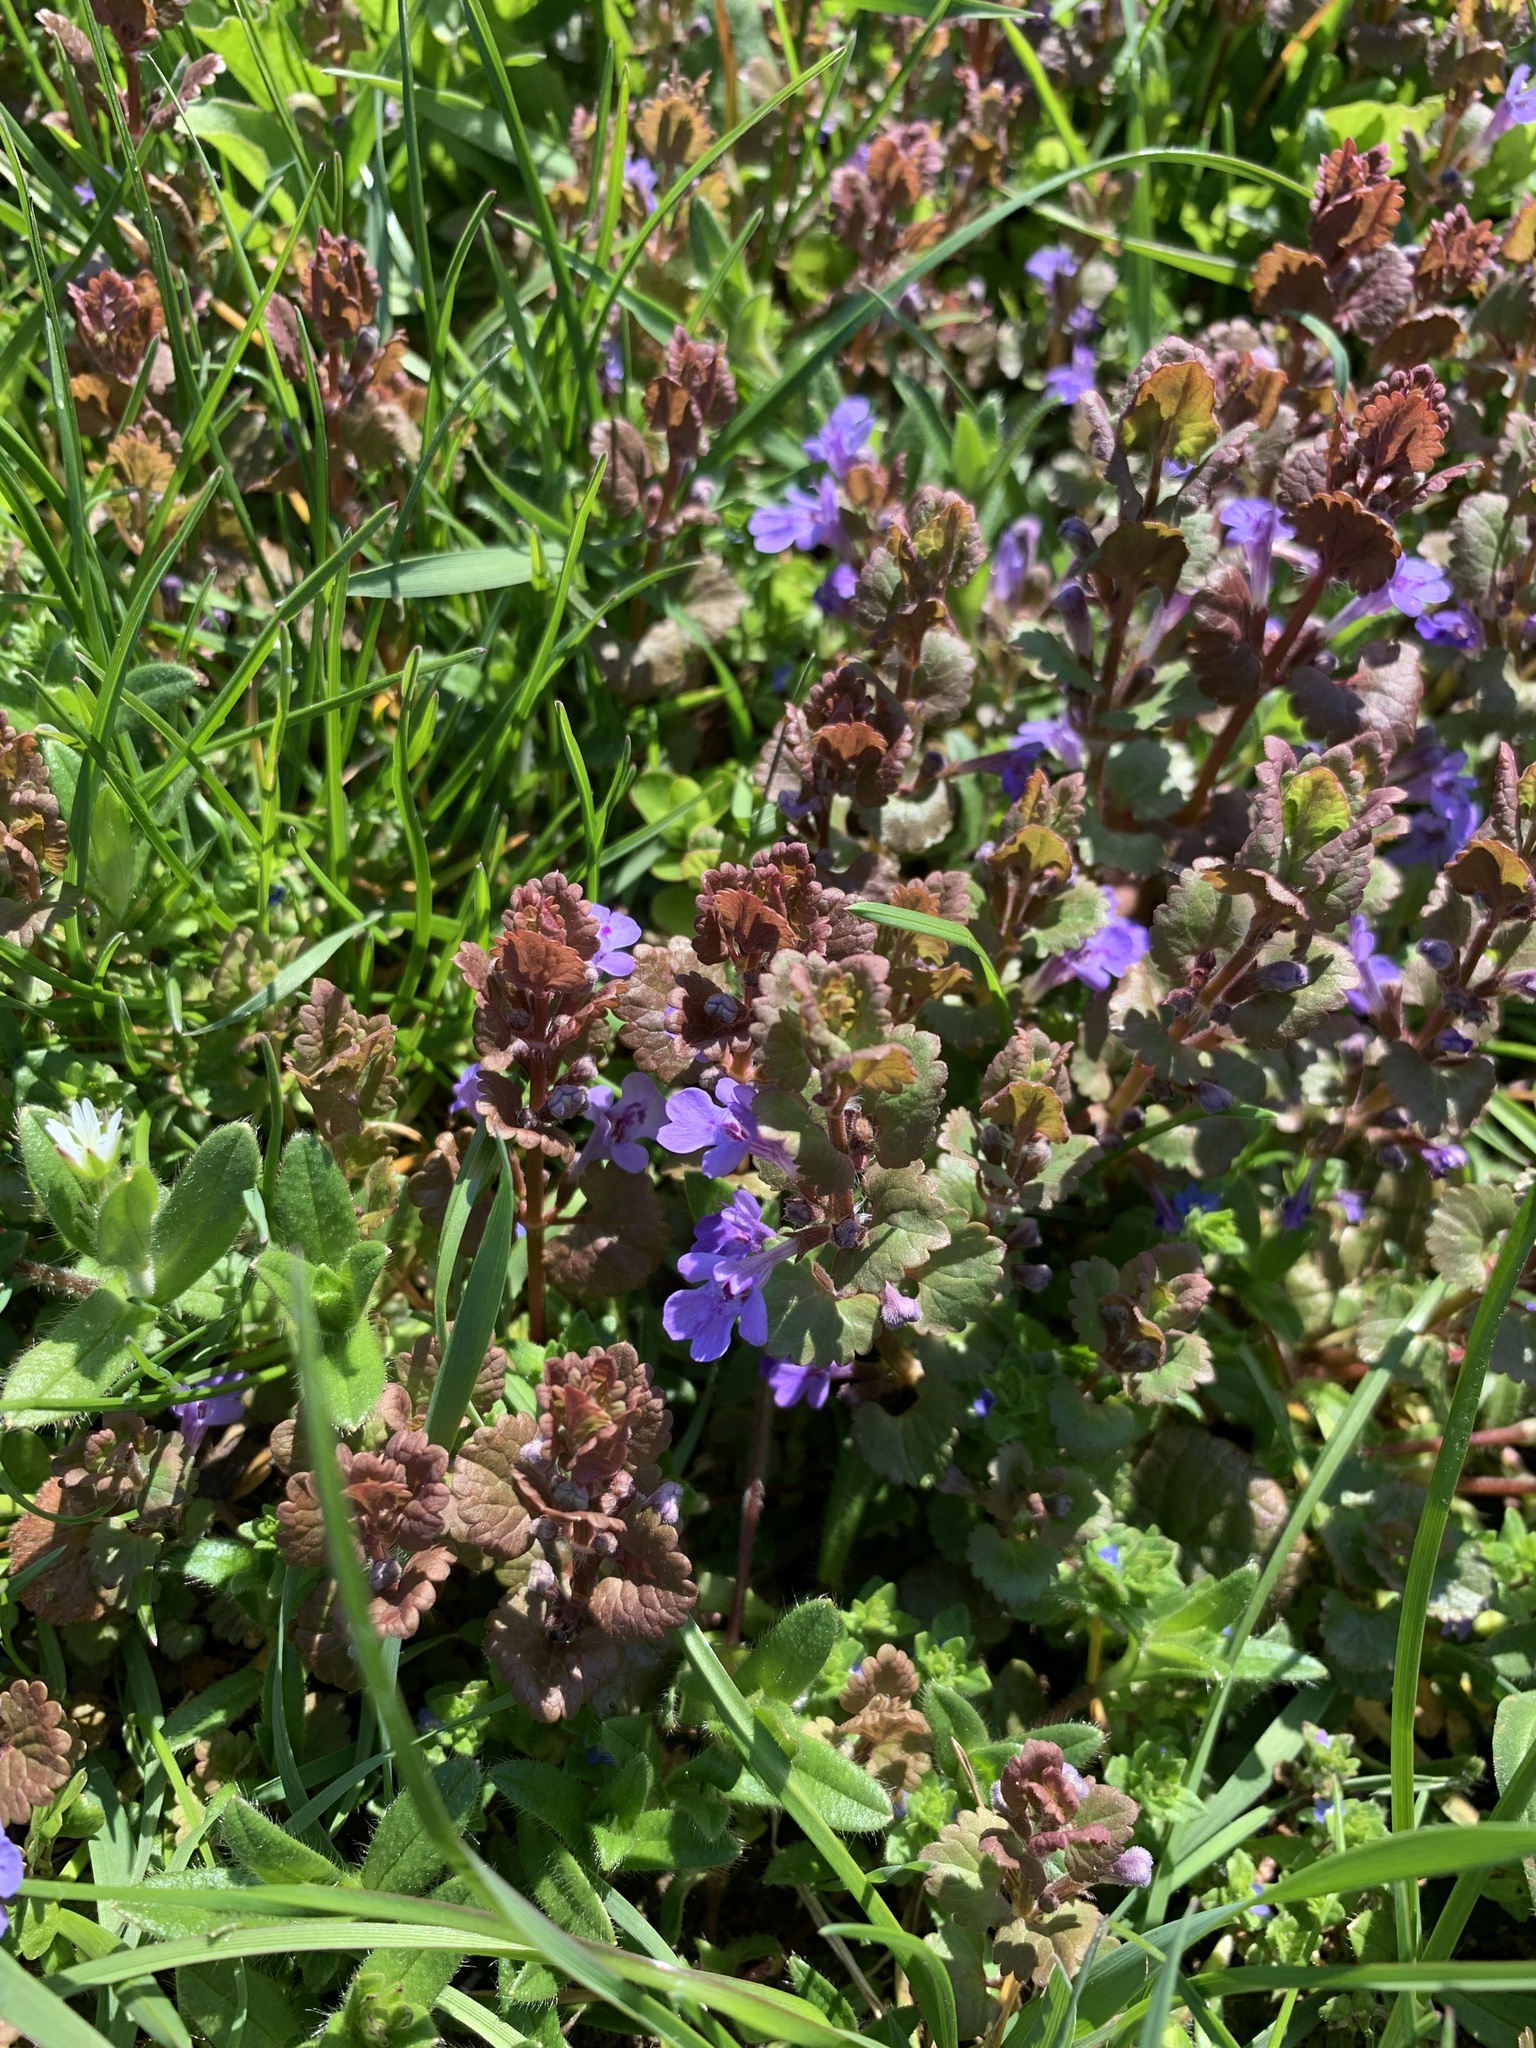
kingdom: Plantae
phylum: Tracheophyta
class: Magnoliopsida
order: Lamiales
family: Lamiaceae
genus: Glechoma
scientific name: Glechoma hederacea
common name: Ground ivy
